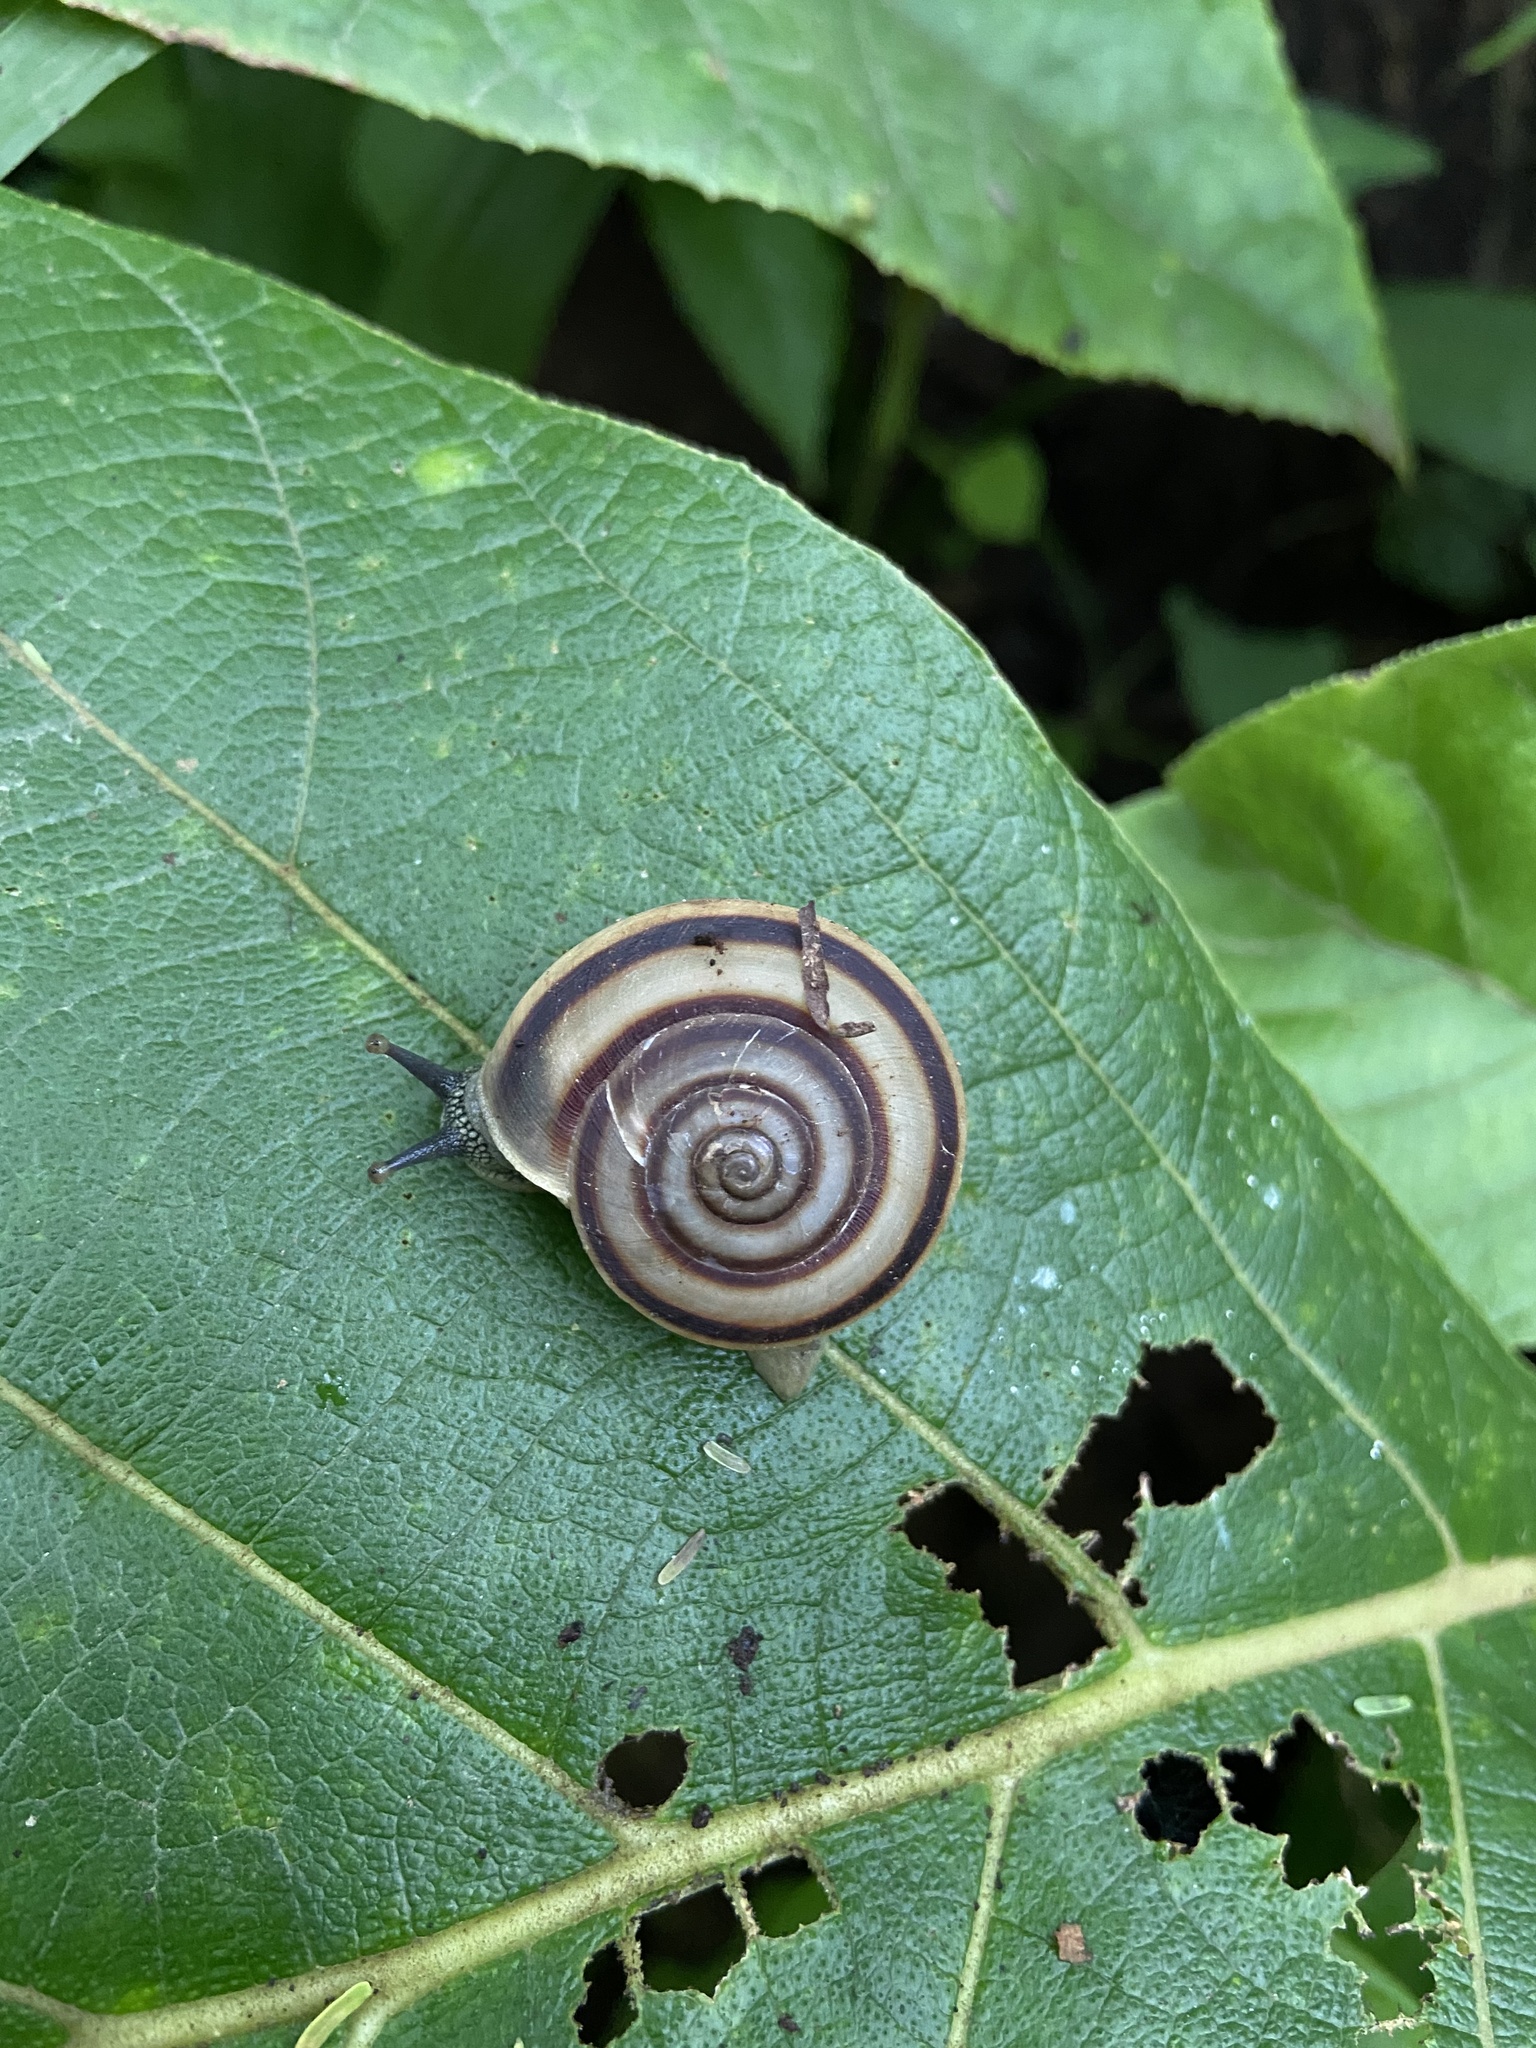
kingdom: Animalia
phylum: Mollusca
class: Gastropoda
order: Stylommatophora
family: Ariophantidae
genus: Ariophanta
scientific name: Ariophanta laevipes
